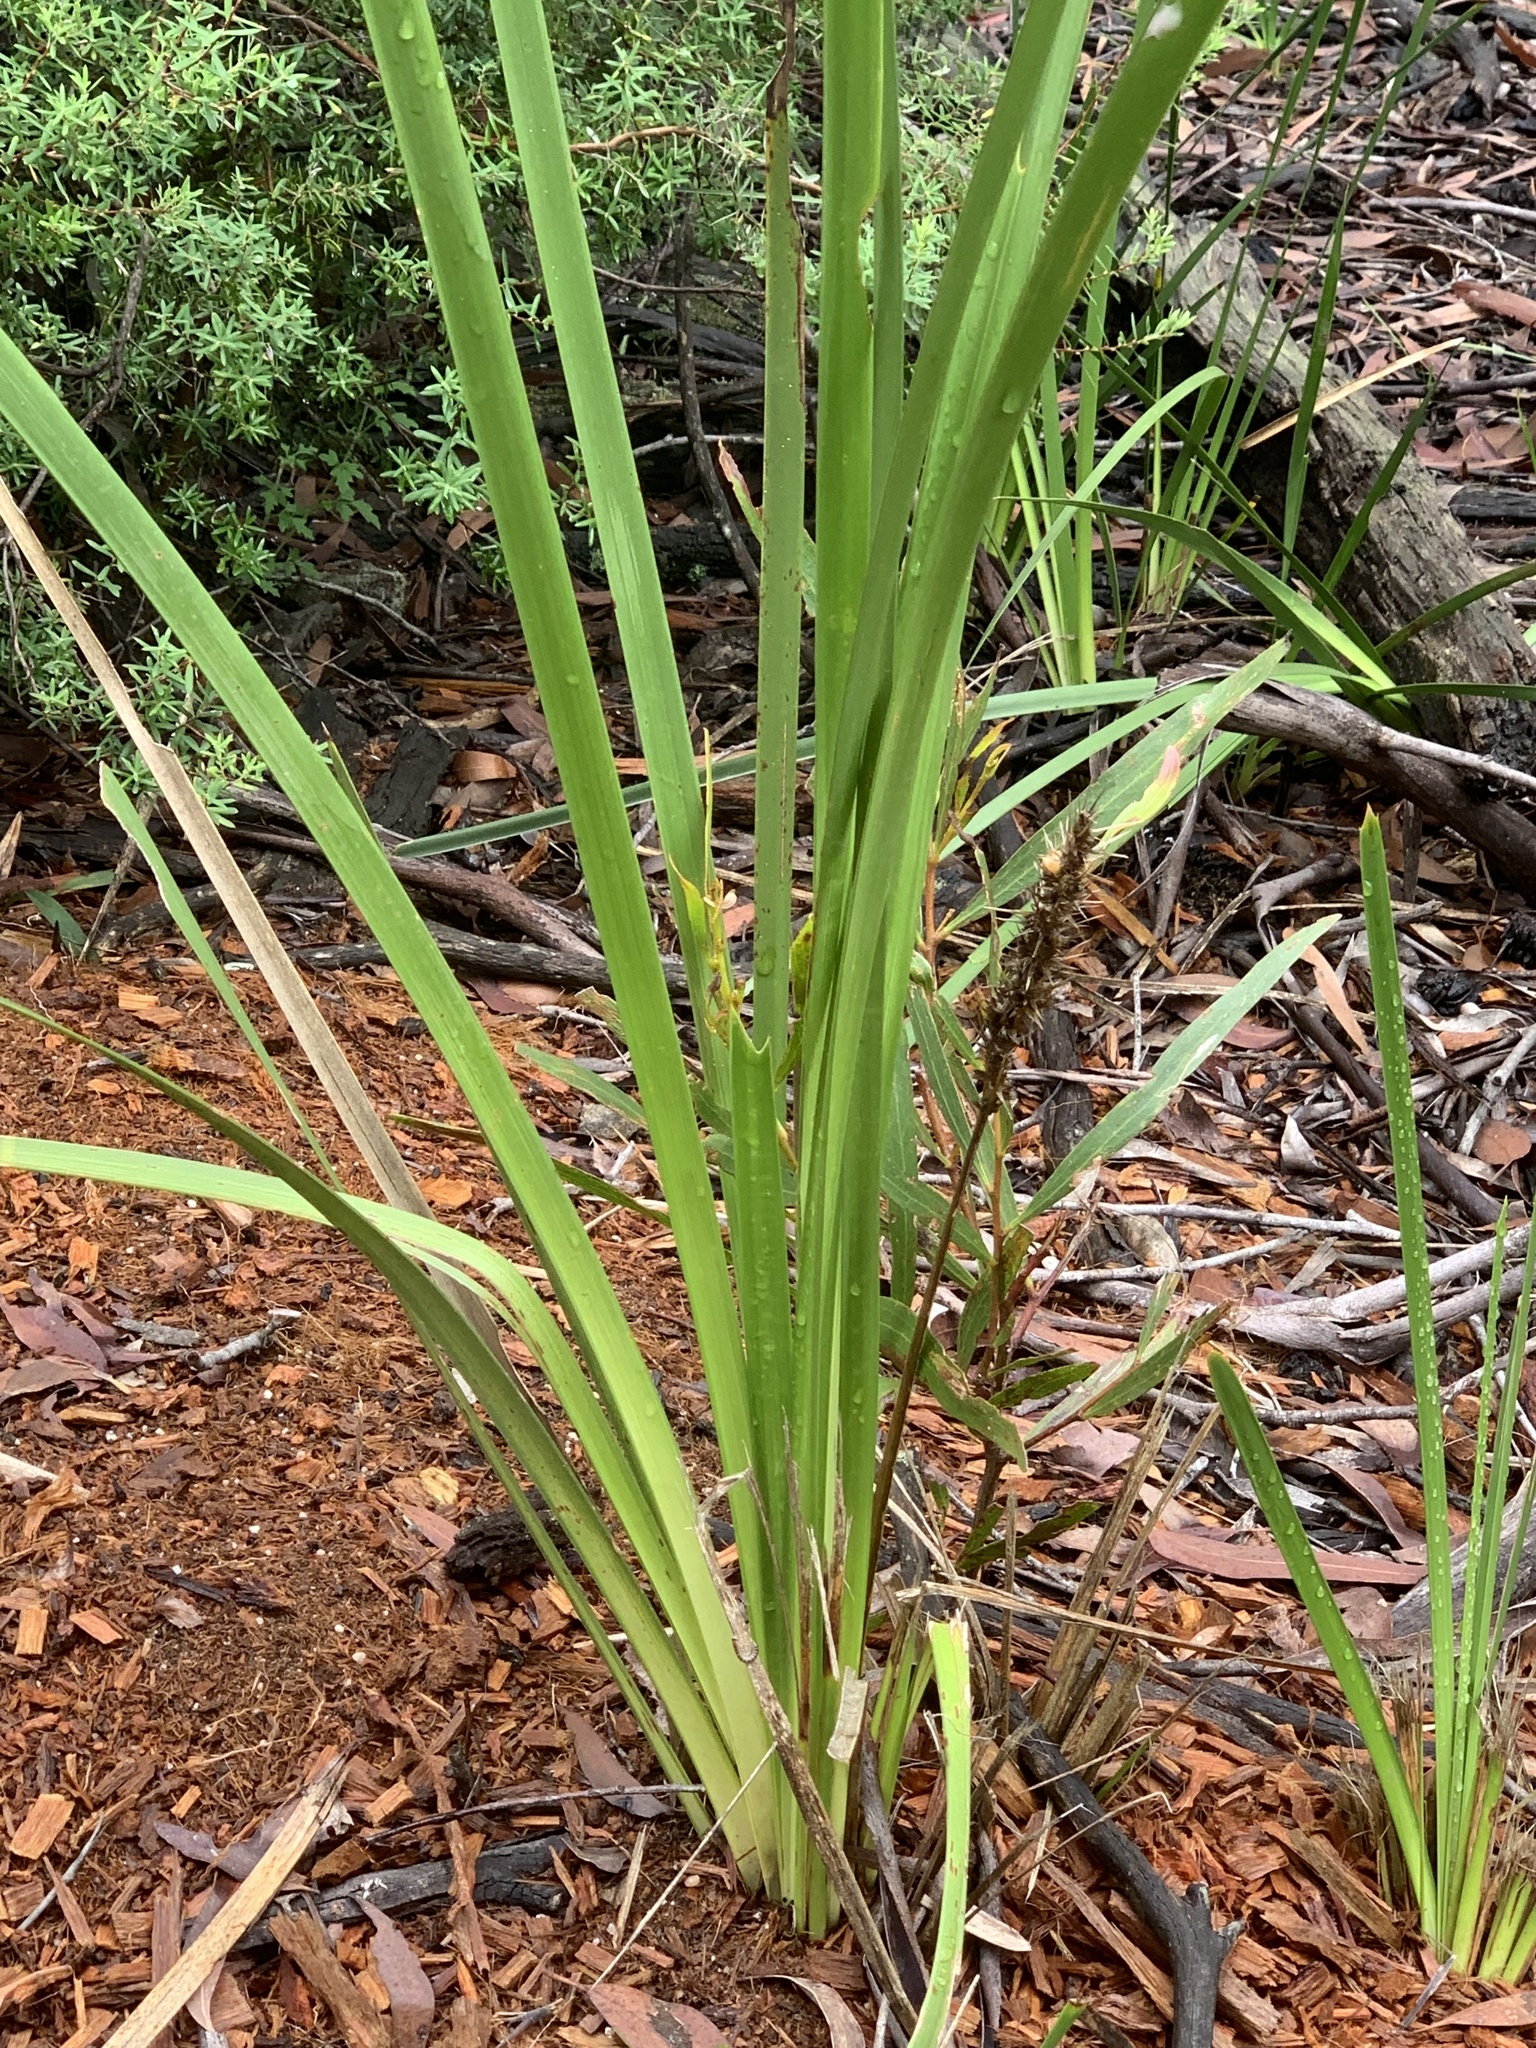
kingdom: Plantae
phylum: Tracheophyta
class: Liliopsida
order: Asparagales
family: Asparagaceae
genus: Lomandra
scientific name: Lomandra longifolia
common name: Longleaf mat-rush
